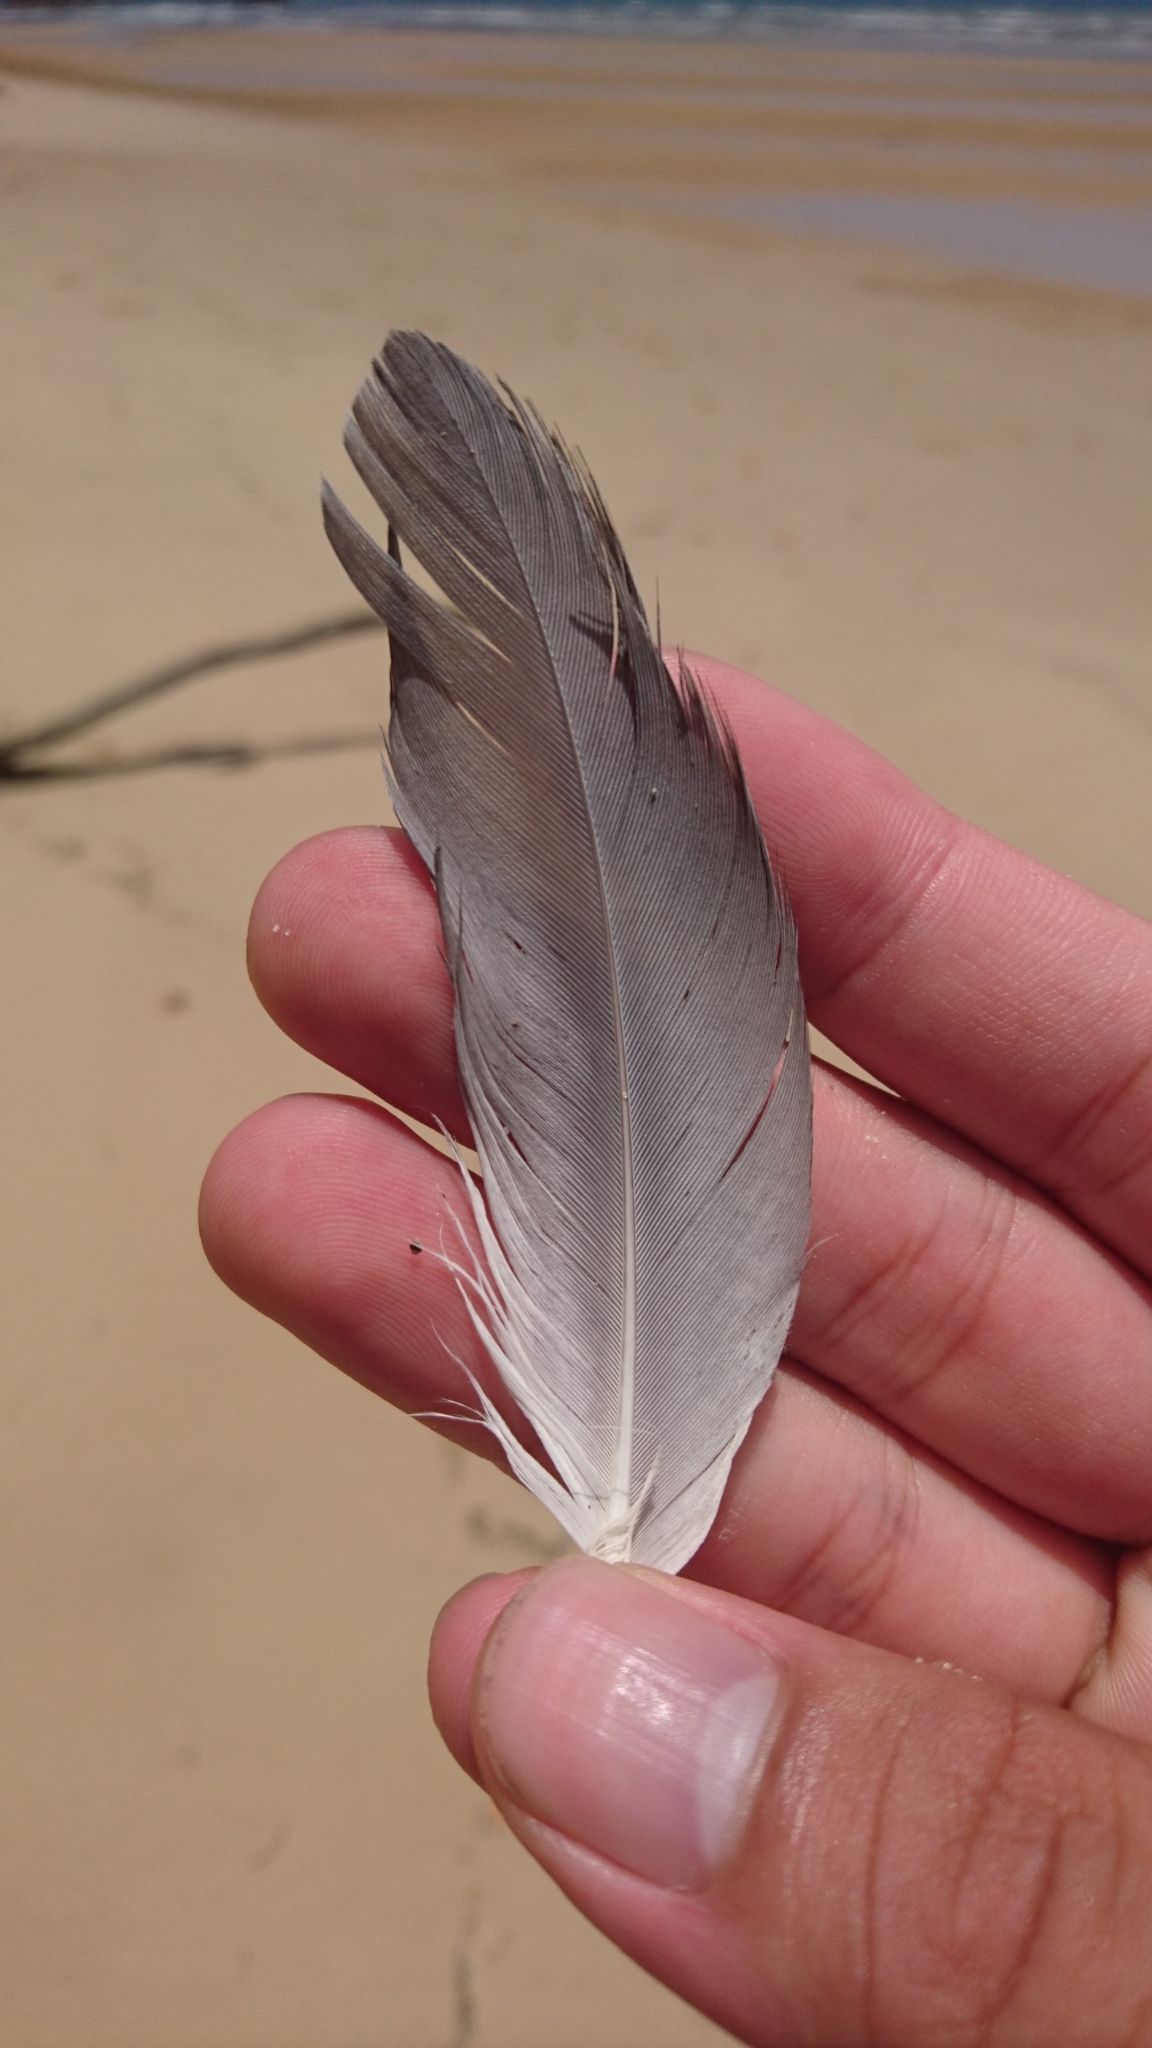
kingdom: Animalia
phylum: Chordata
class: Aves
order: Pelecaniformes
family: Ardeidae
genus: Egretta
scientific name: Egretta novaehollandiae
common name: White-faced heron
